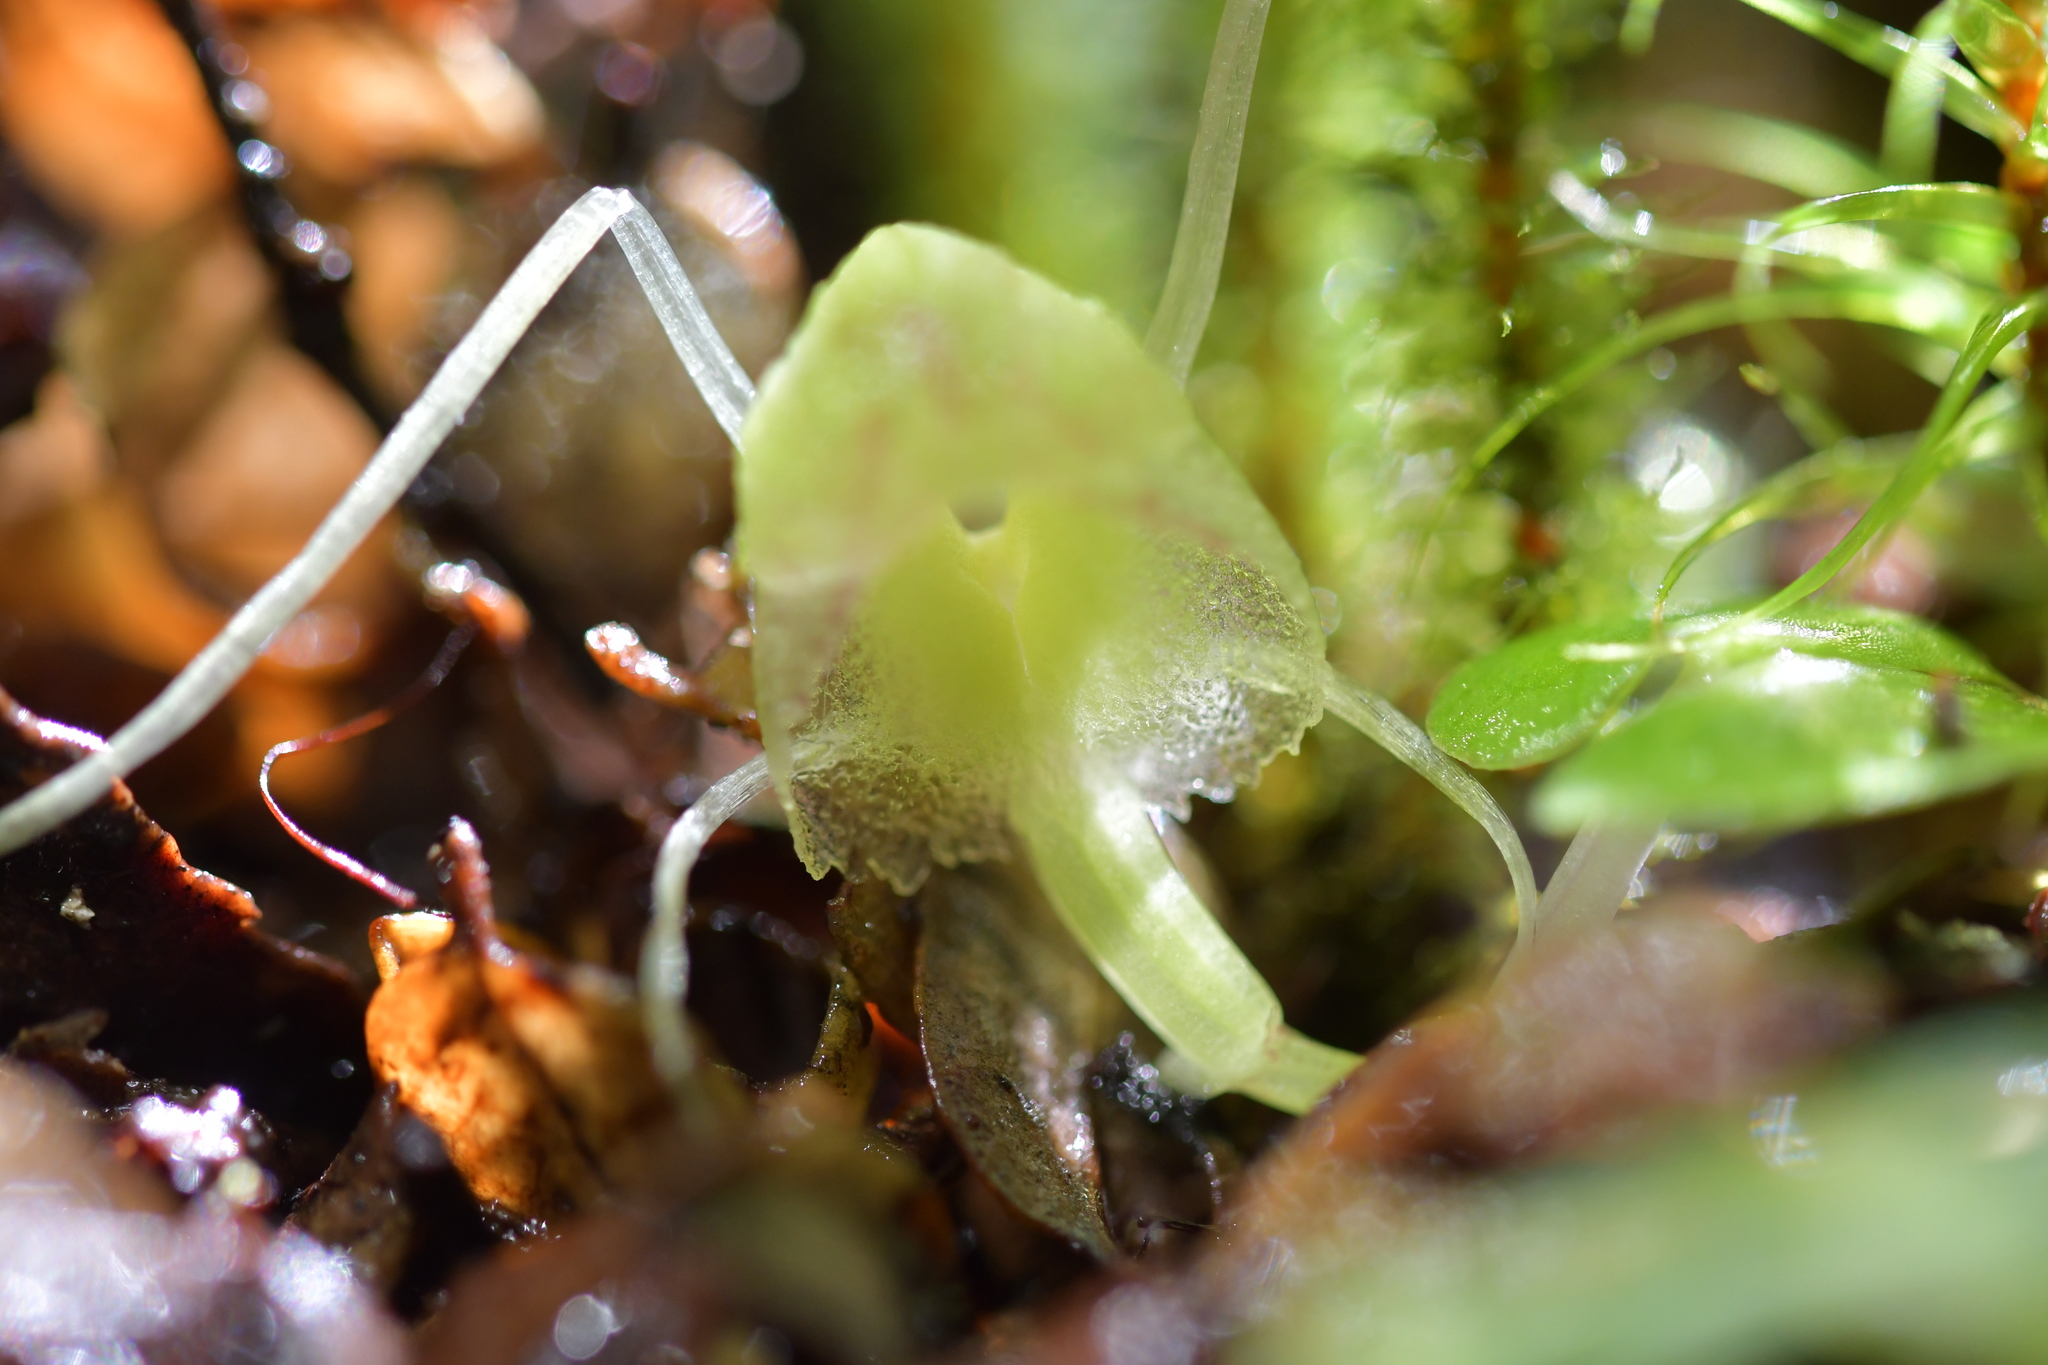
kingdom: Plantae
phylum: Tracheophyta
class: Liliopsida
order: Asparagales
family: Orchidaceae
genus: Corybas
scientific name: Corybas walliae
